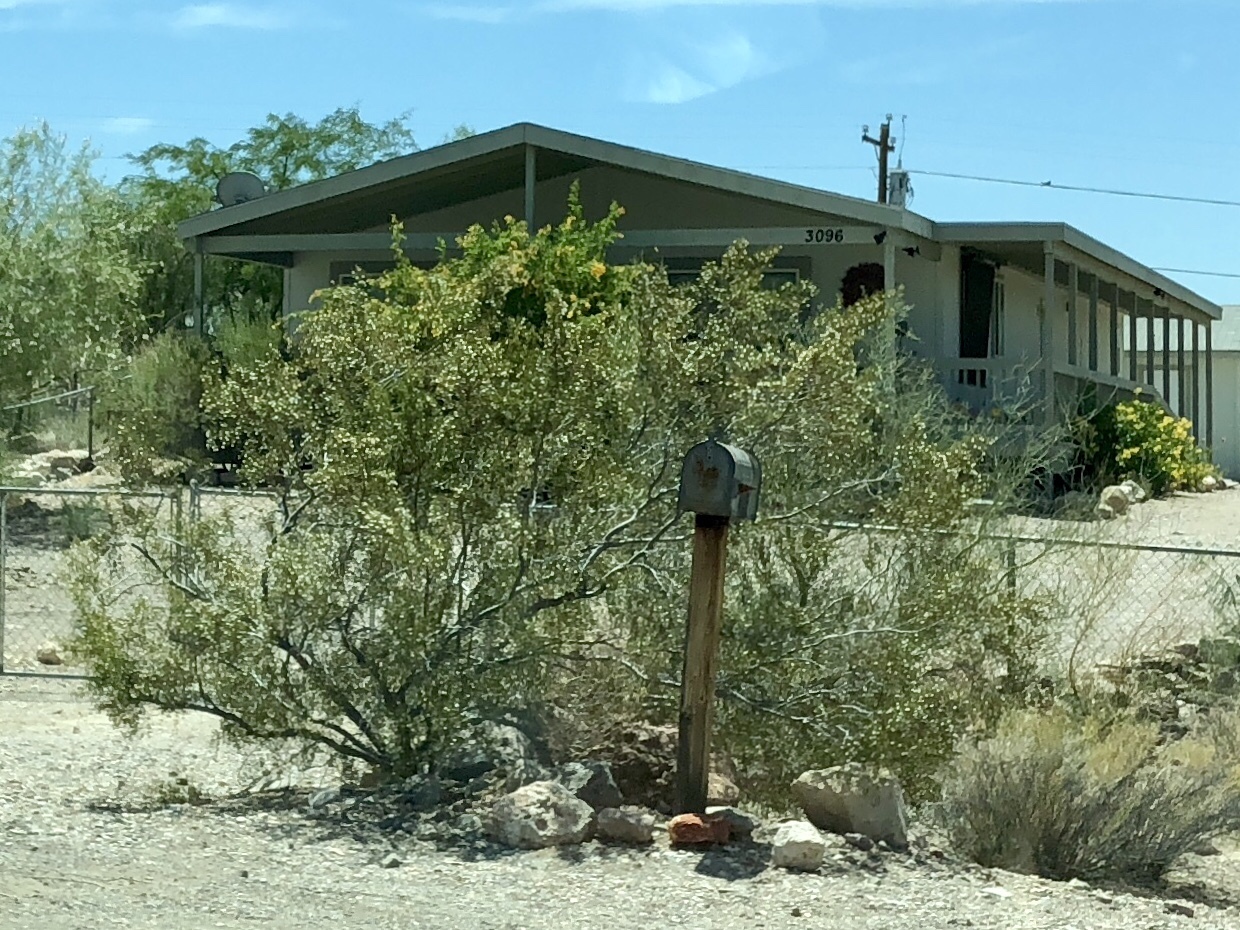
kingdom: Plantae
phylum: Tracheophyta
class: Magnoliopsida
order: Zygophyllales
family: Zygophyllaceae
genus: Larrea
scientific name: Larrea tridentata
